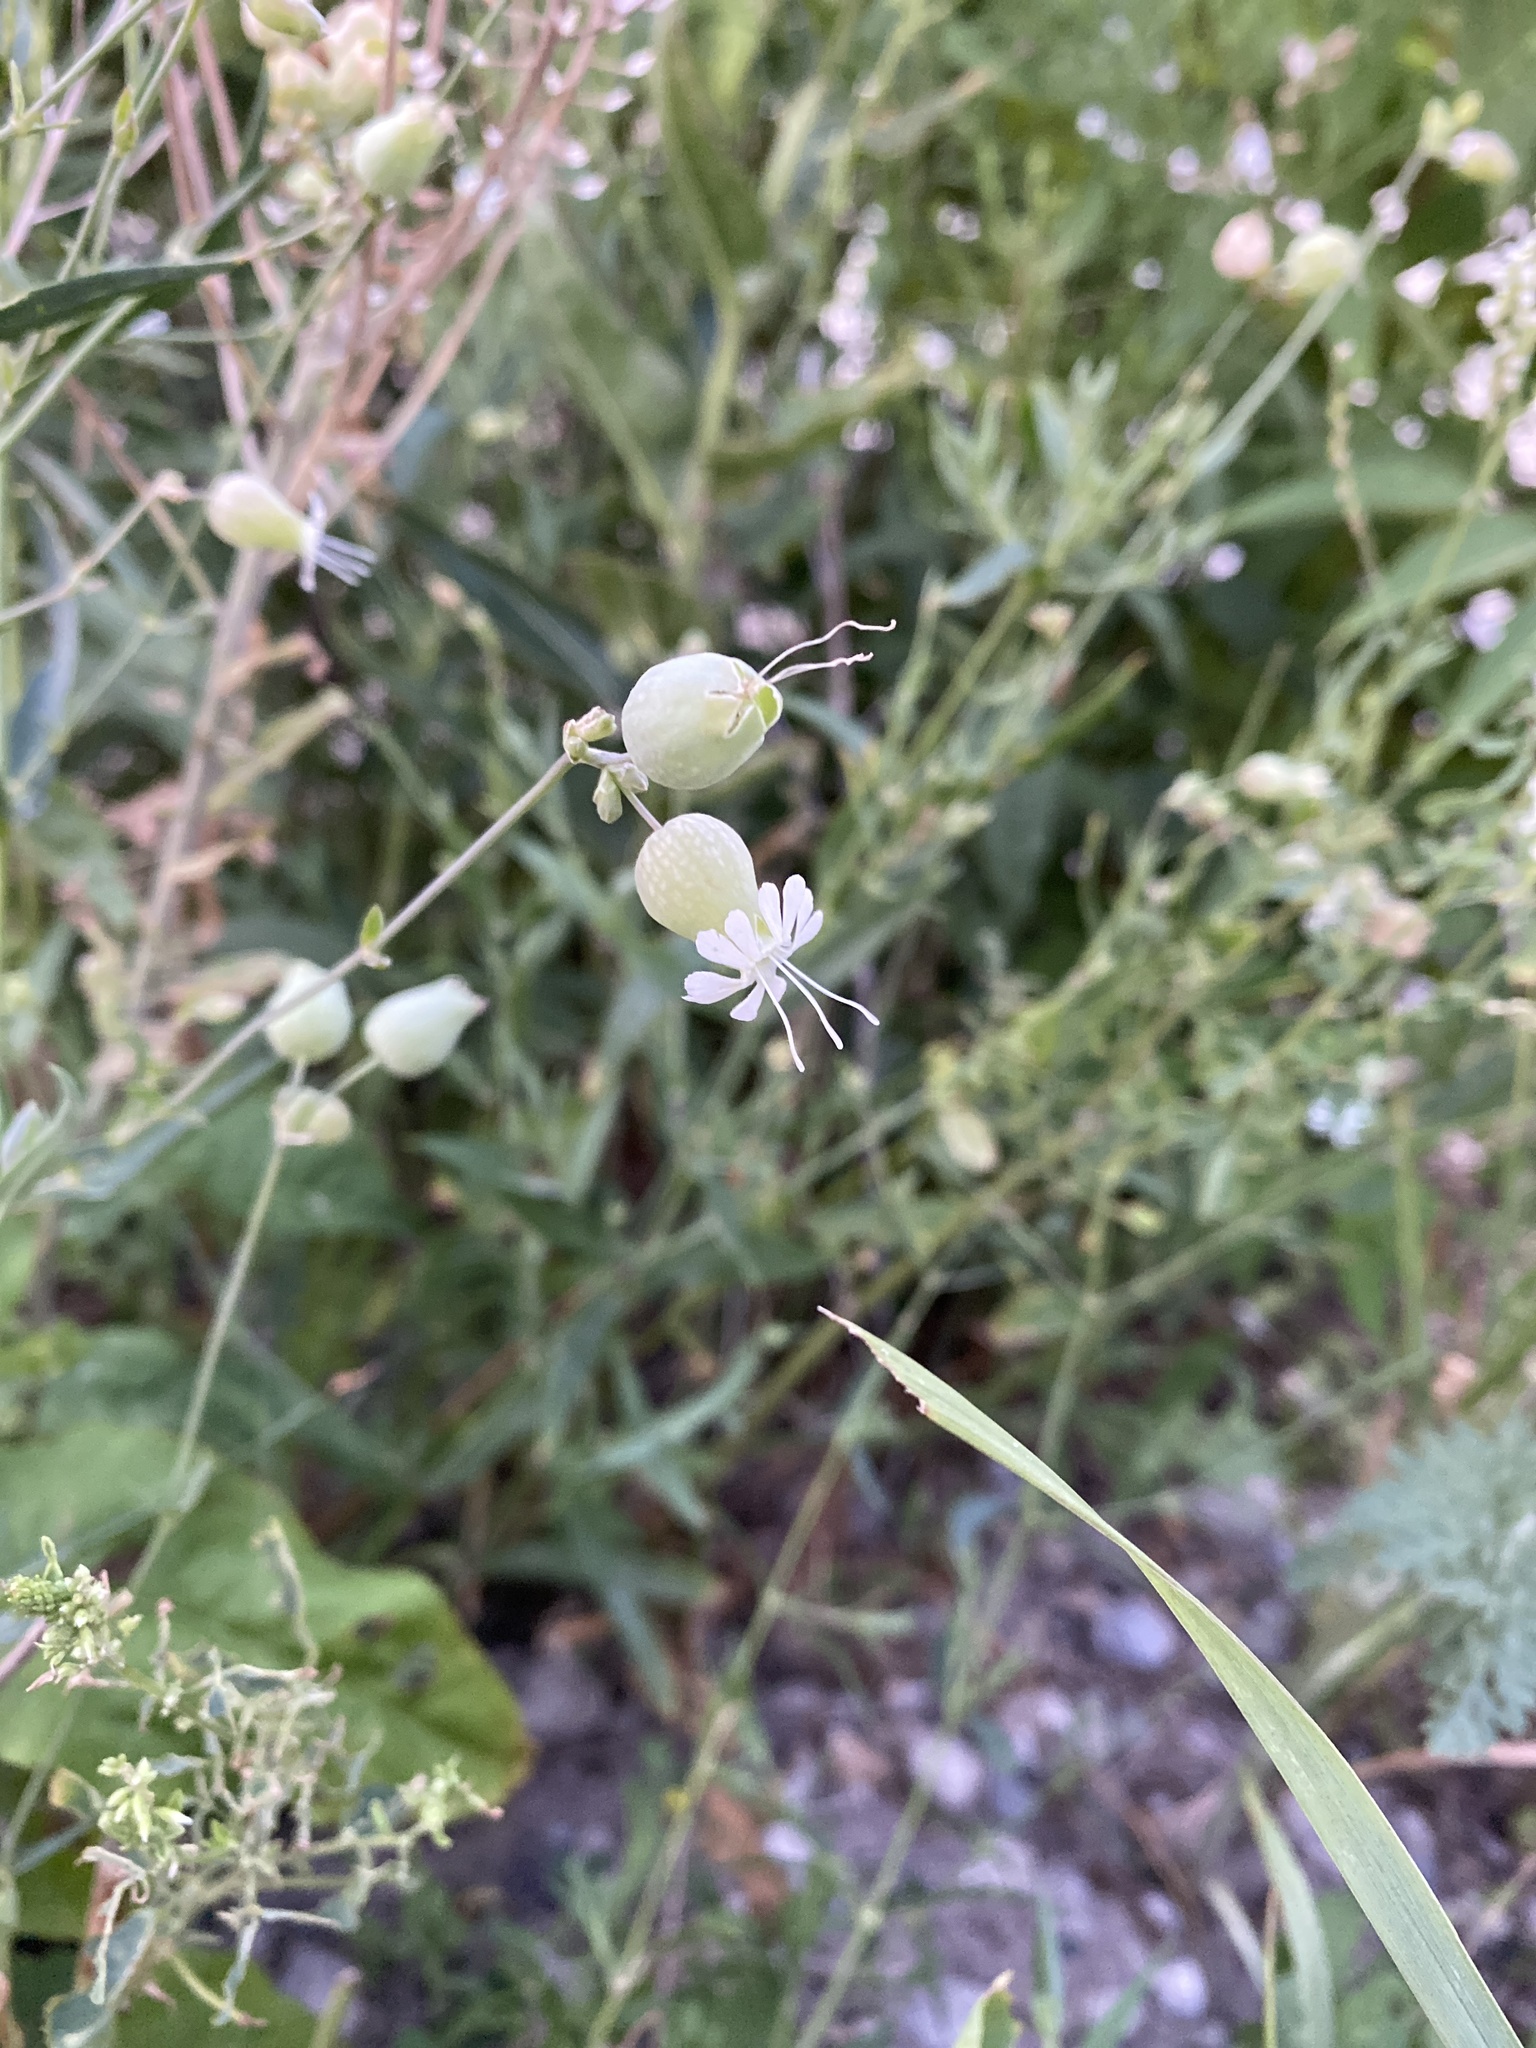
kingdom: Plantae
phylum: Tracheophyta
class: Magnoliopsida
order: Caryophyllales
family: Caryophyllaceae
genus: Silene
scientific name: Silene vulgaris
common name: Bladder campion
